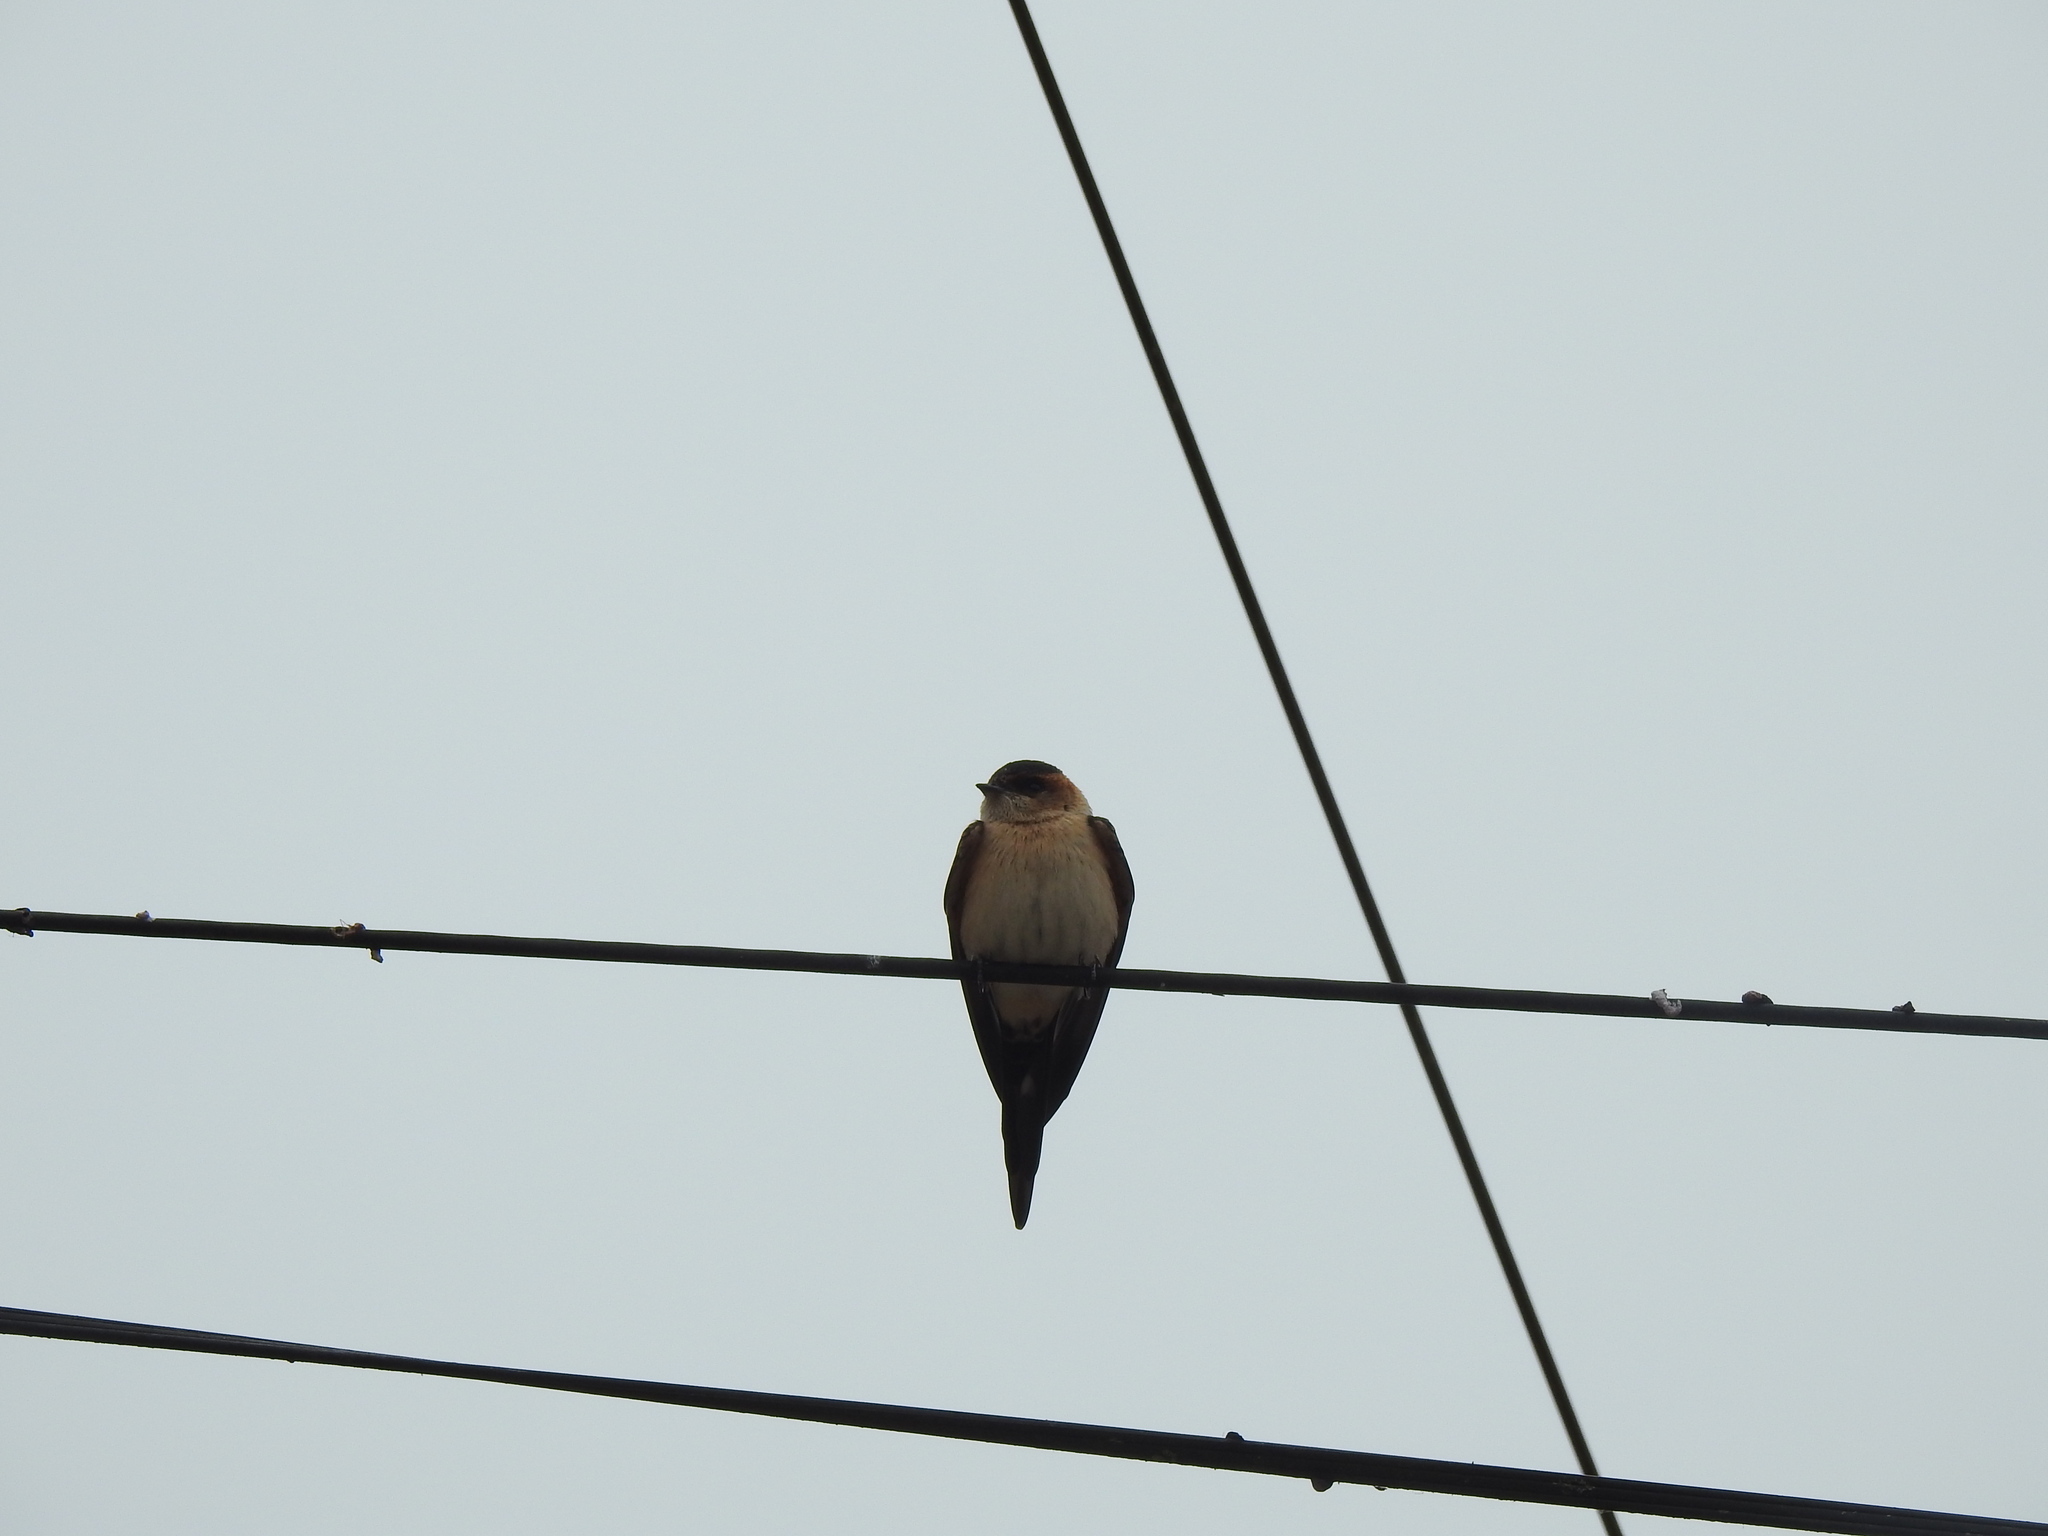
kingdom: Animalia
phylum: Chordata
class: Aves
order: Passeriformes
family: Hirundinidae
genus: Cecropis
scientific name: Cecropis daurica
